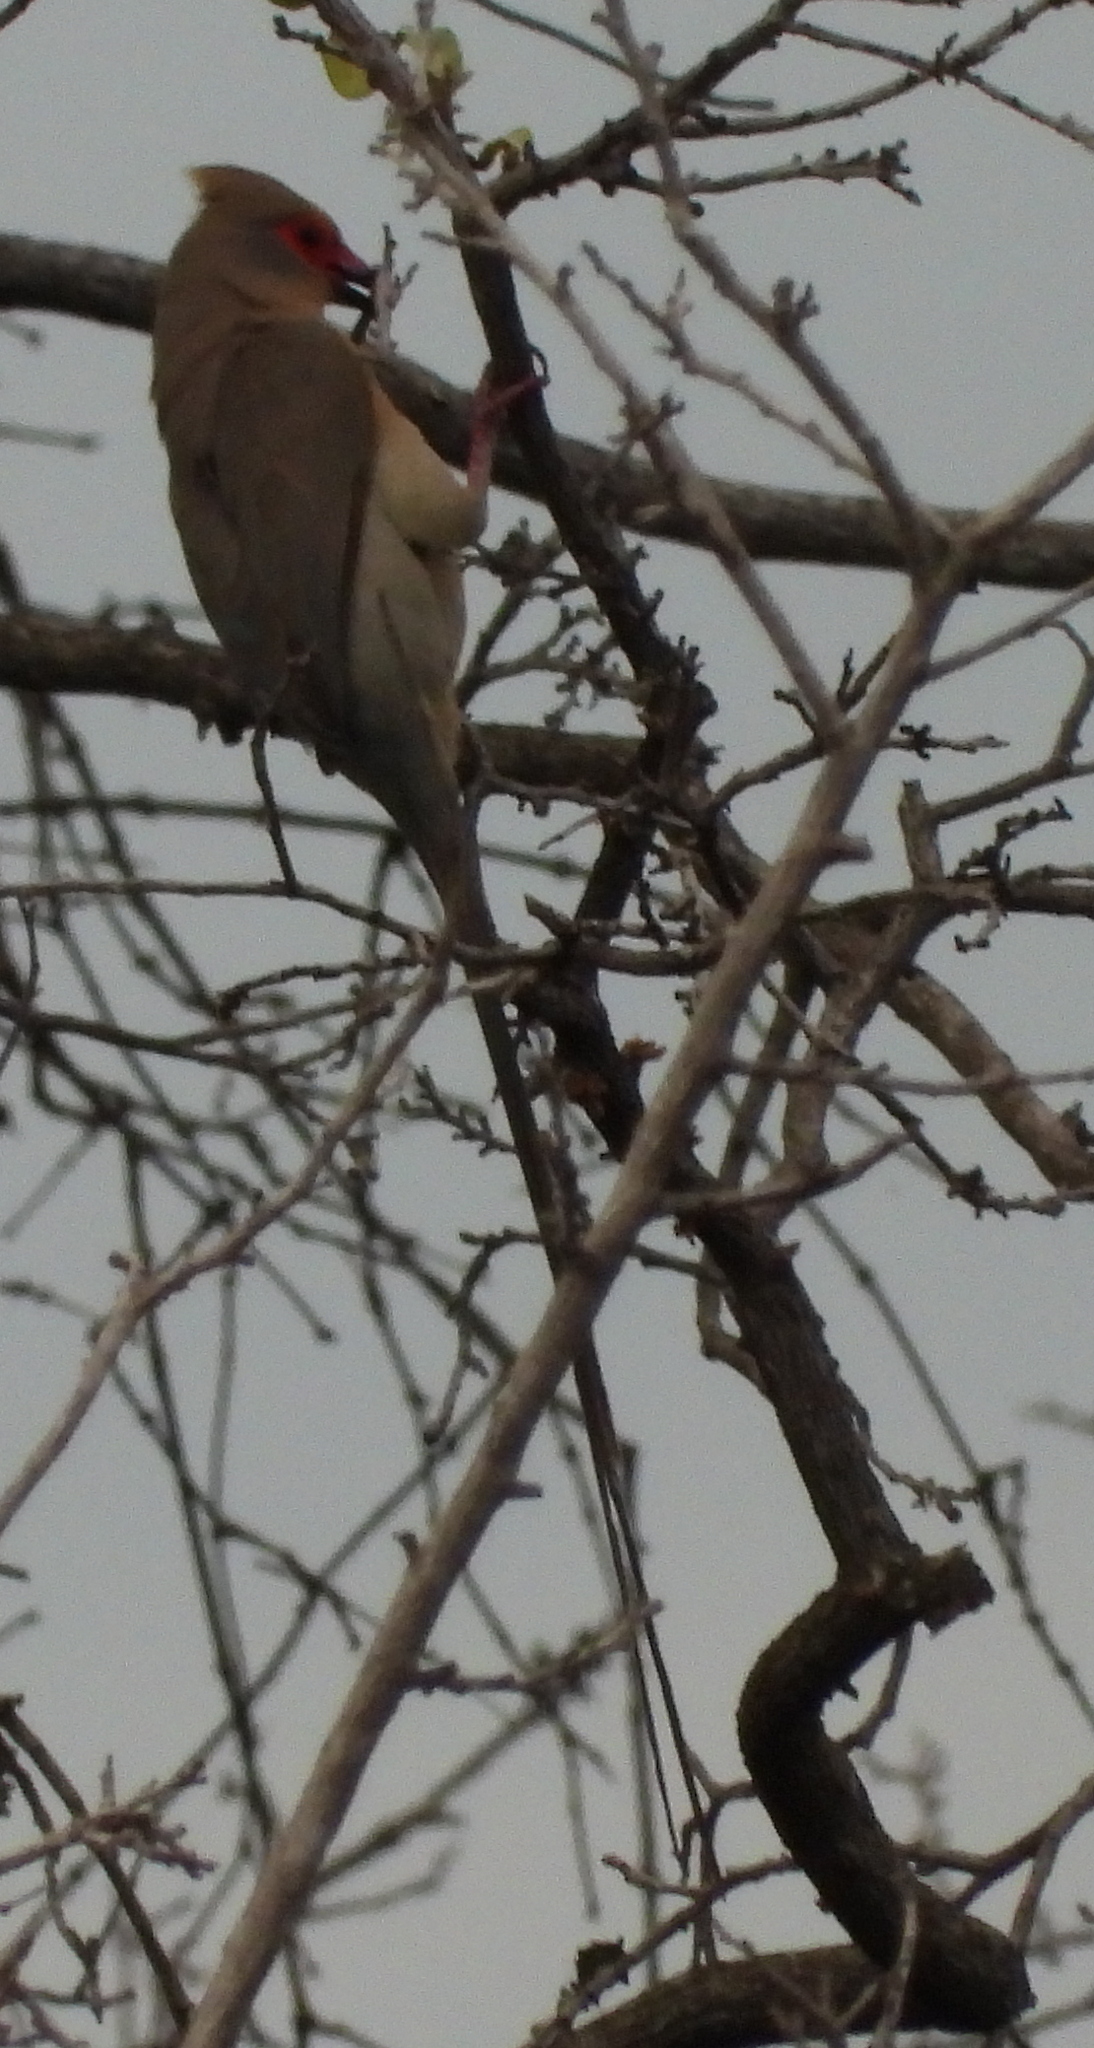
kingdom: Animalia
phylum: Chordata
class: Aves
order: Coliiformes
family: Coliidae
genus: Urocolius
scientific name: Urocolius indicus
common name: Red-faced mousebird
